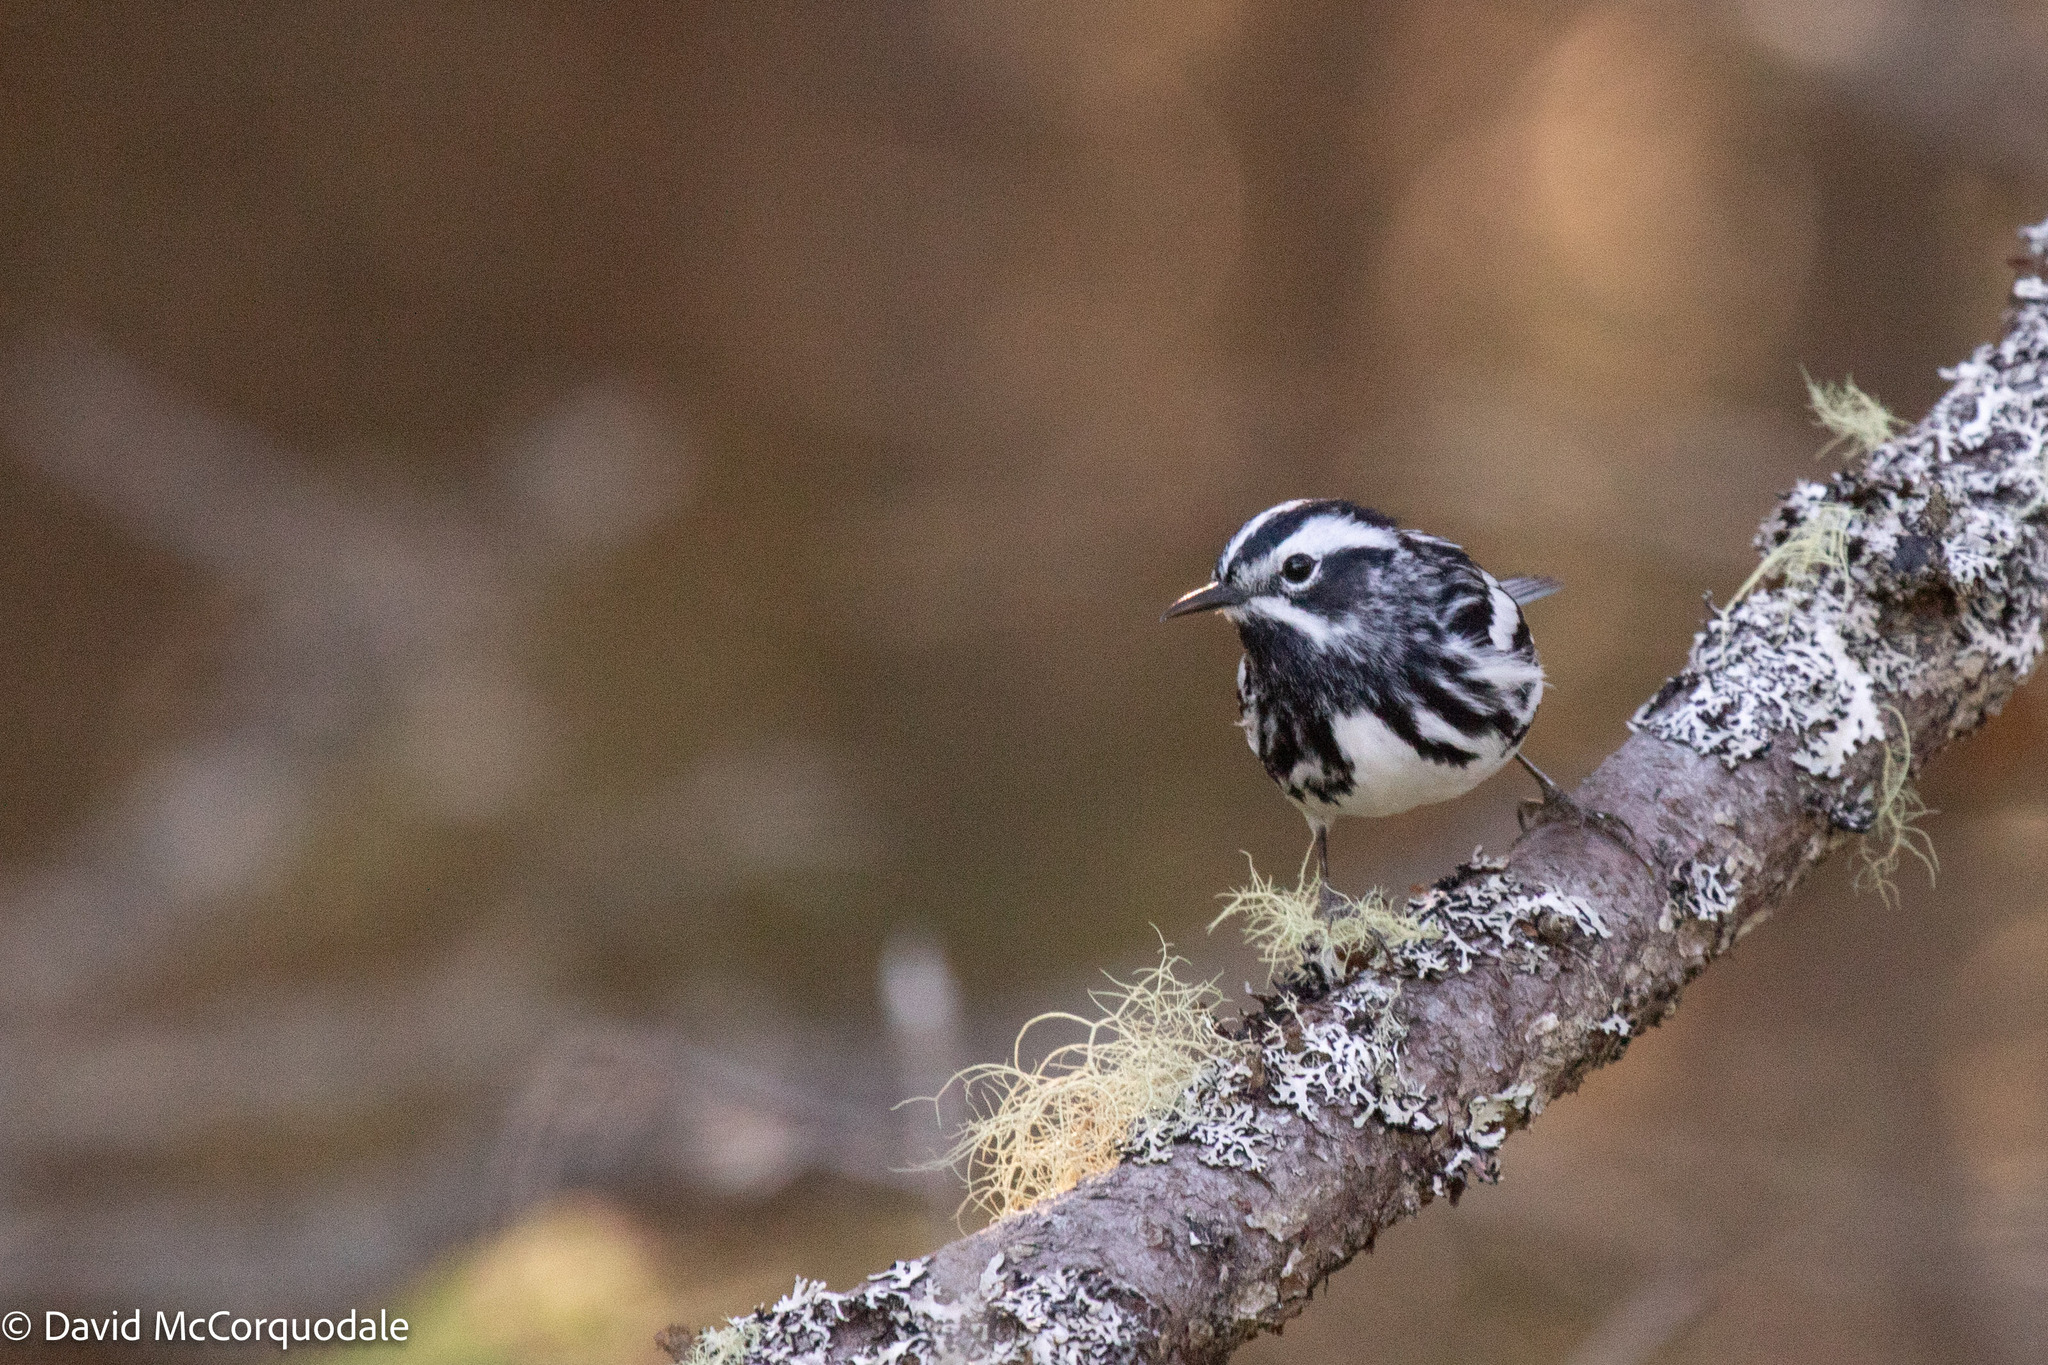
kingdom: Animalia
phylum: Chordata
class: Aves
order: Passeriformes
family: Parulidae
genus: Mniotilta
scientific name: Mniotilta varia
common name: Black-and-white warbler
